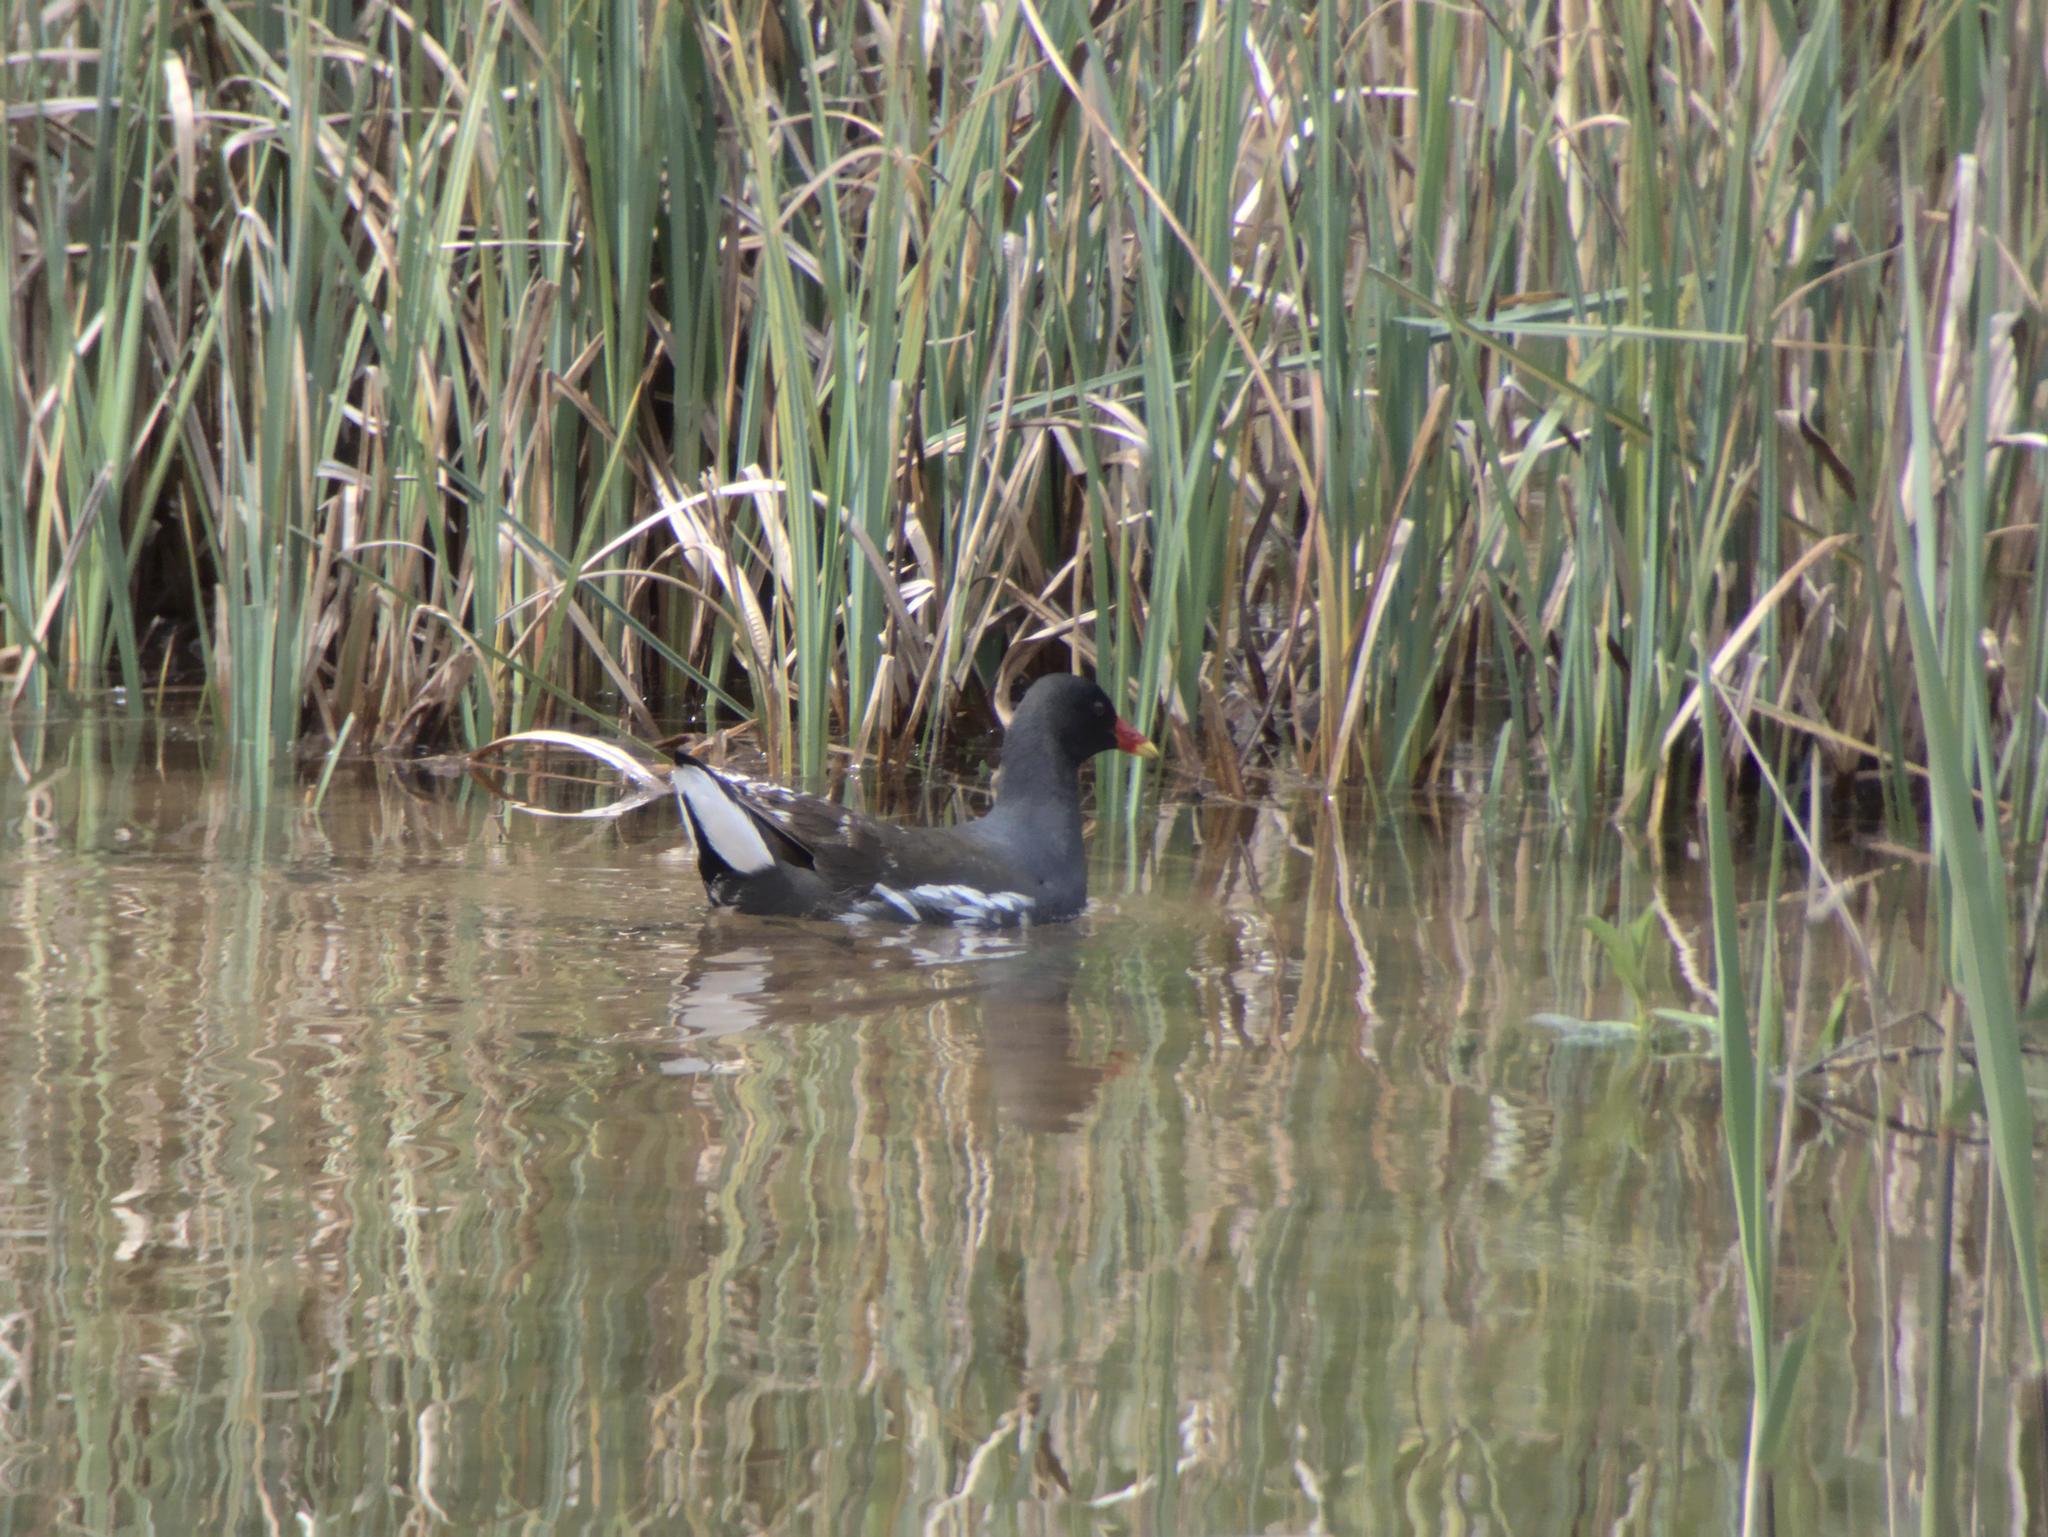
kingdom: Animalia
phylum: Chordata
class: Aves
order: Gruiformes
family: Rallidae
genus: Gallinula
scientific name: Gallinula chloropus
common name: Common moorhen
